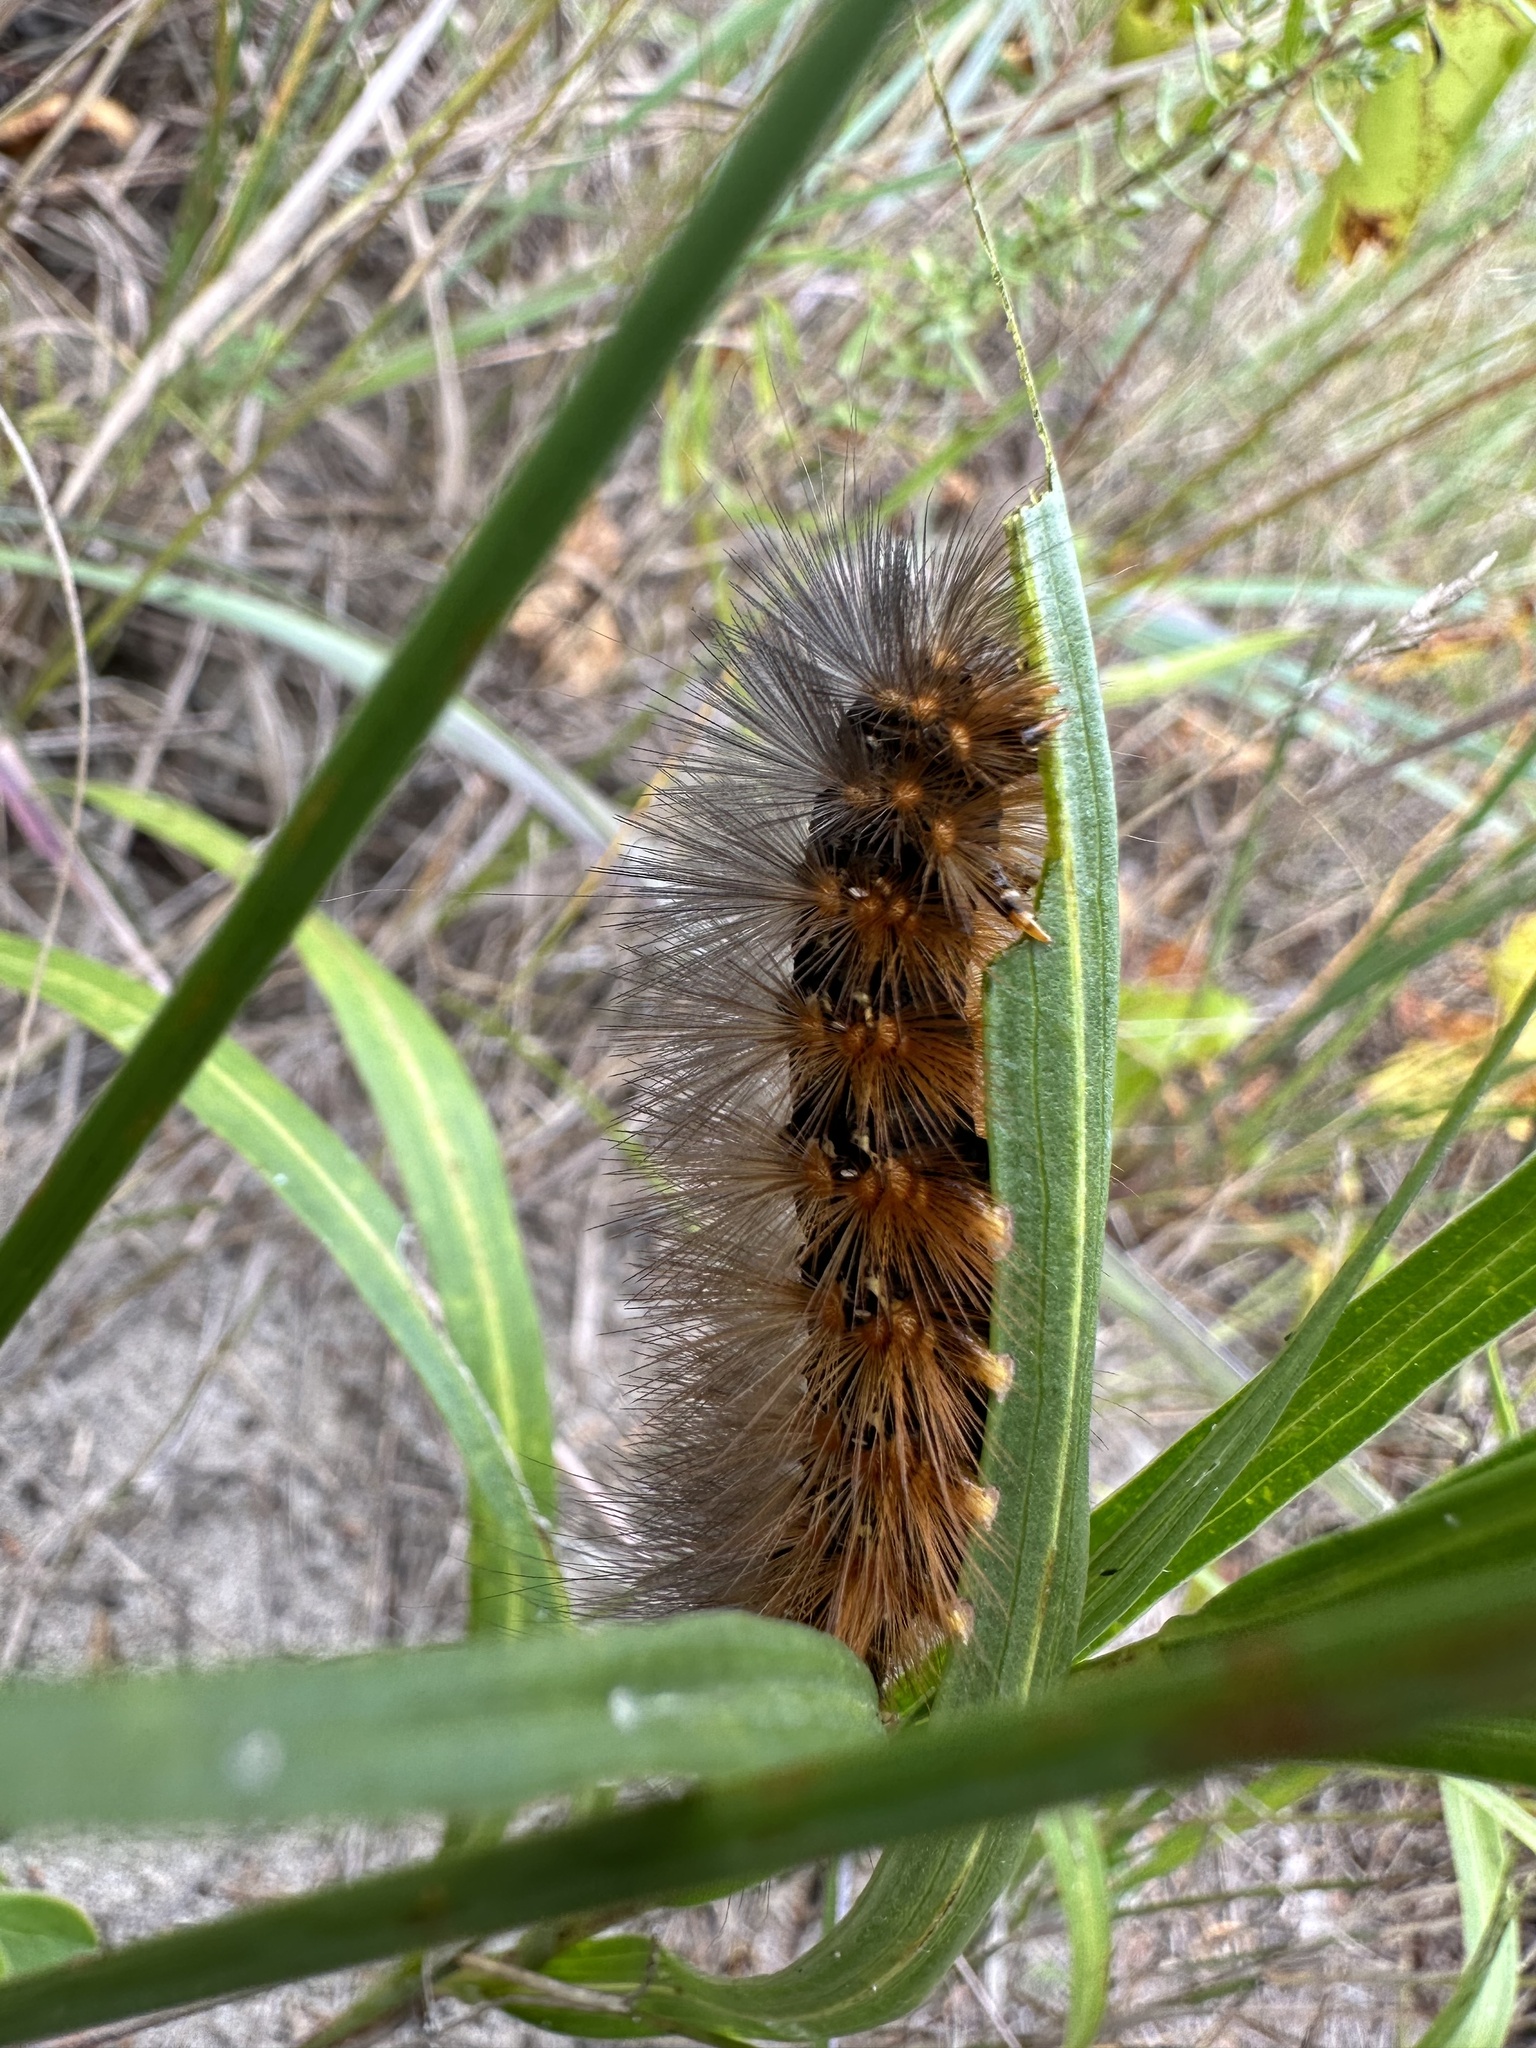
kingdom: Animalia
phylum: Arthropoda
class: Insecta
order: Lepidoptera
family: Erebidae
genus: Estigmene
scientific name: Estigmene acrea
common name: Salt marsh moth
